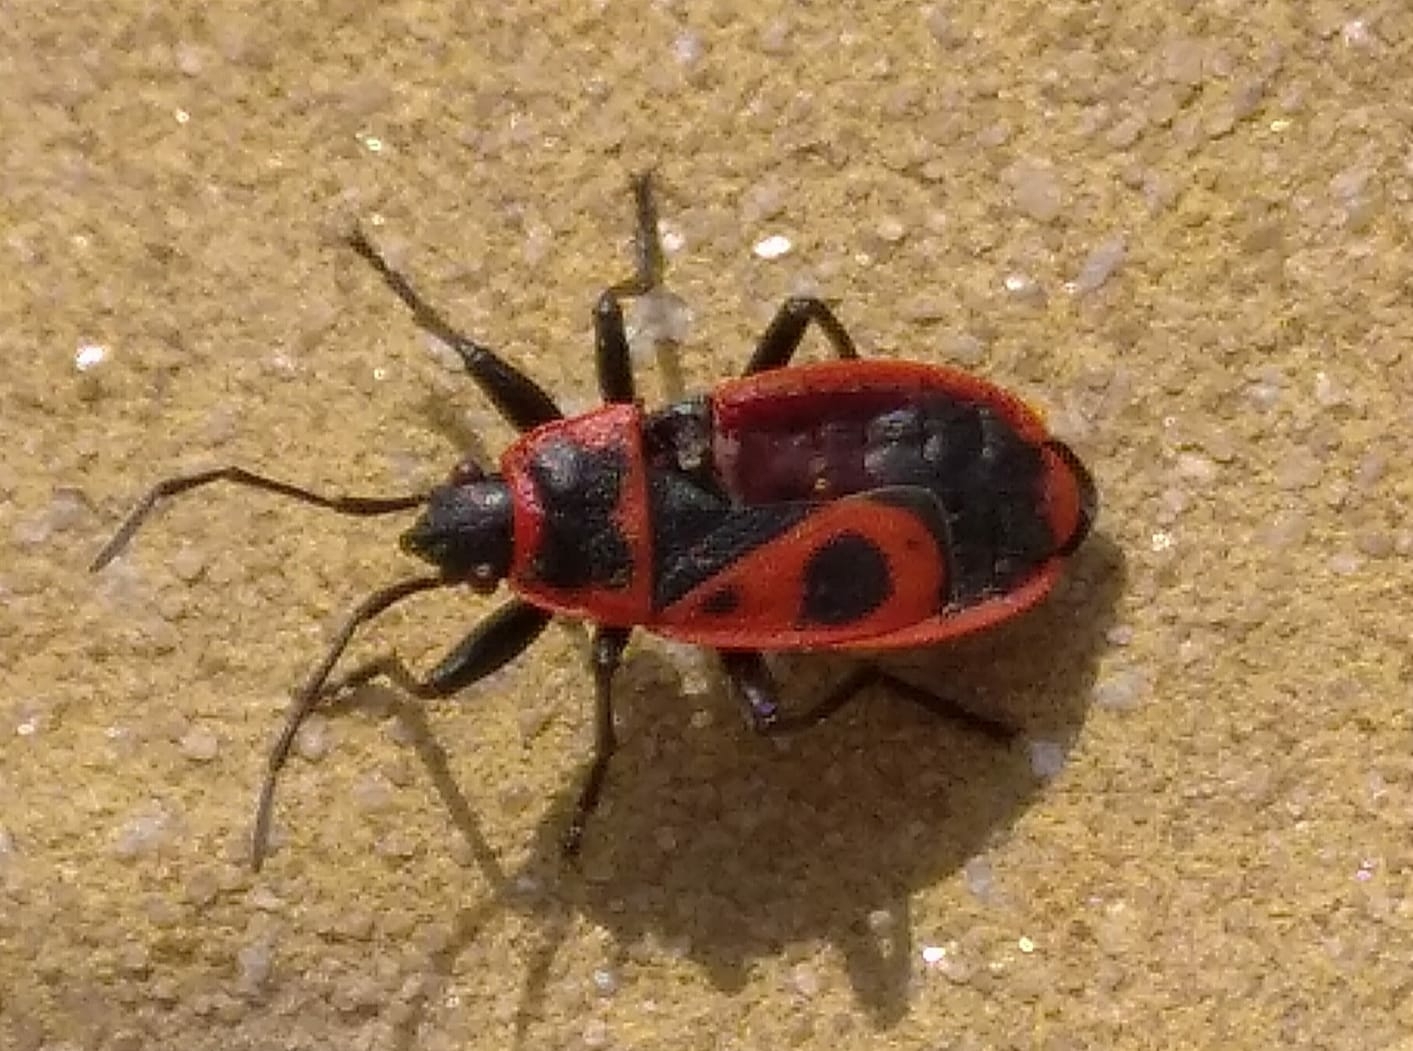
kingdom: Animalia
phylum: Arthropoda
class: Insecta
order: Hemiptera
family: Pyrrhocoridae
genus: Pyrrhocoris
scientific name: Pyrrhocoris apterus
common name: Firebug
